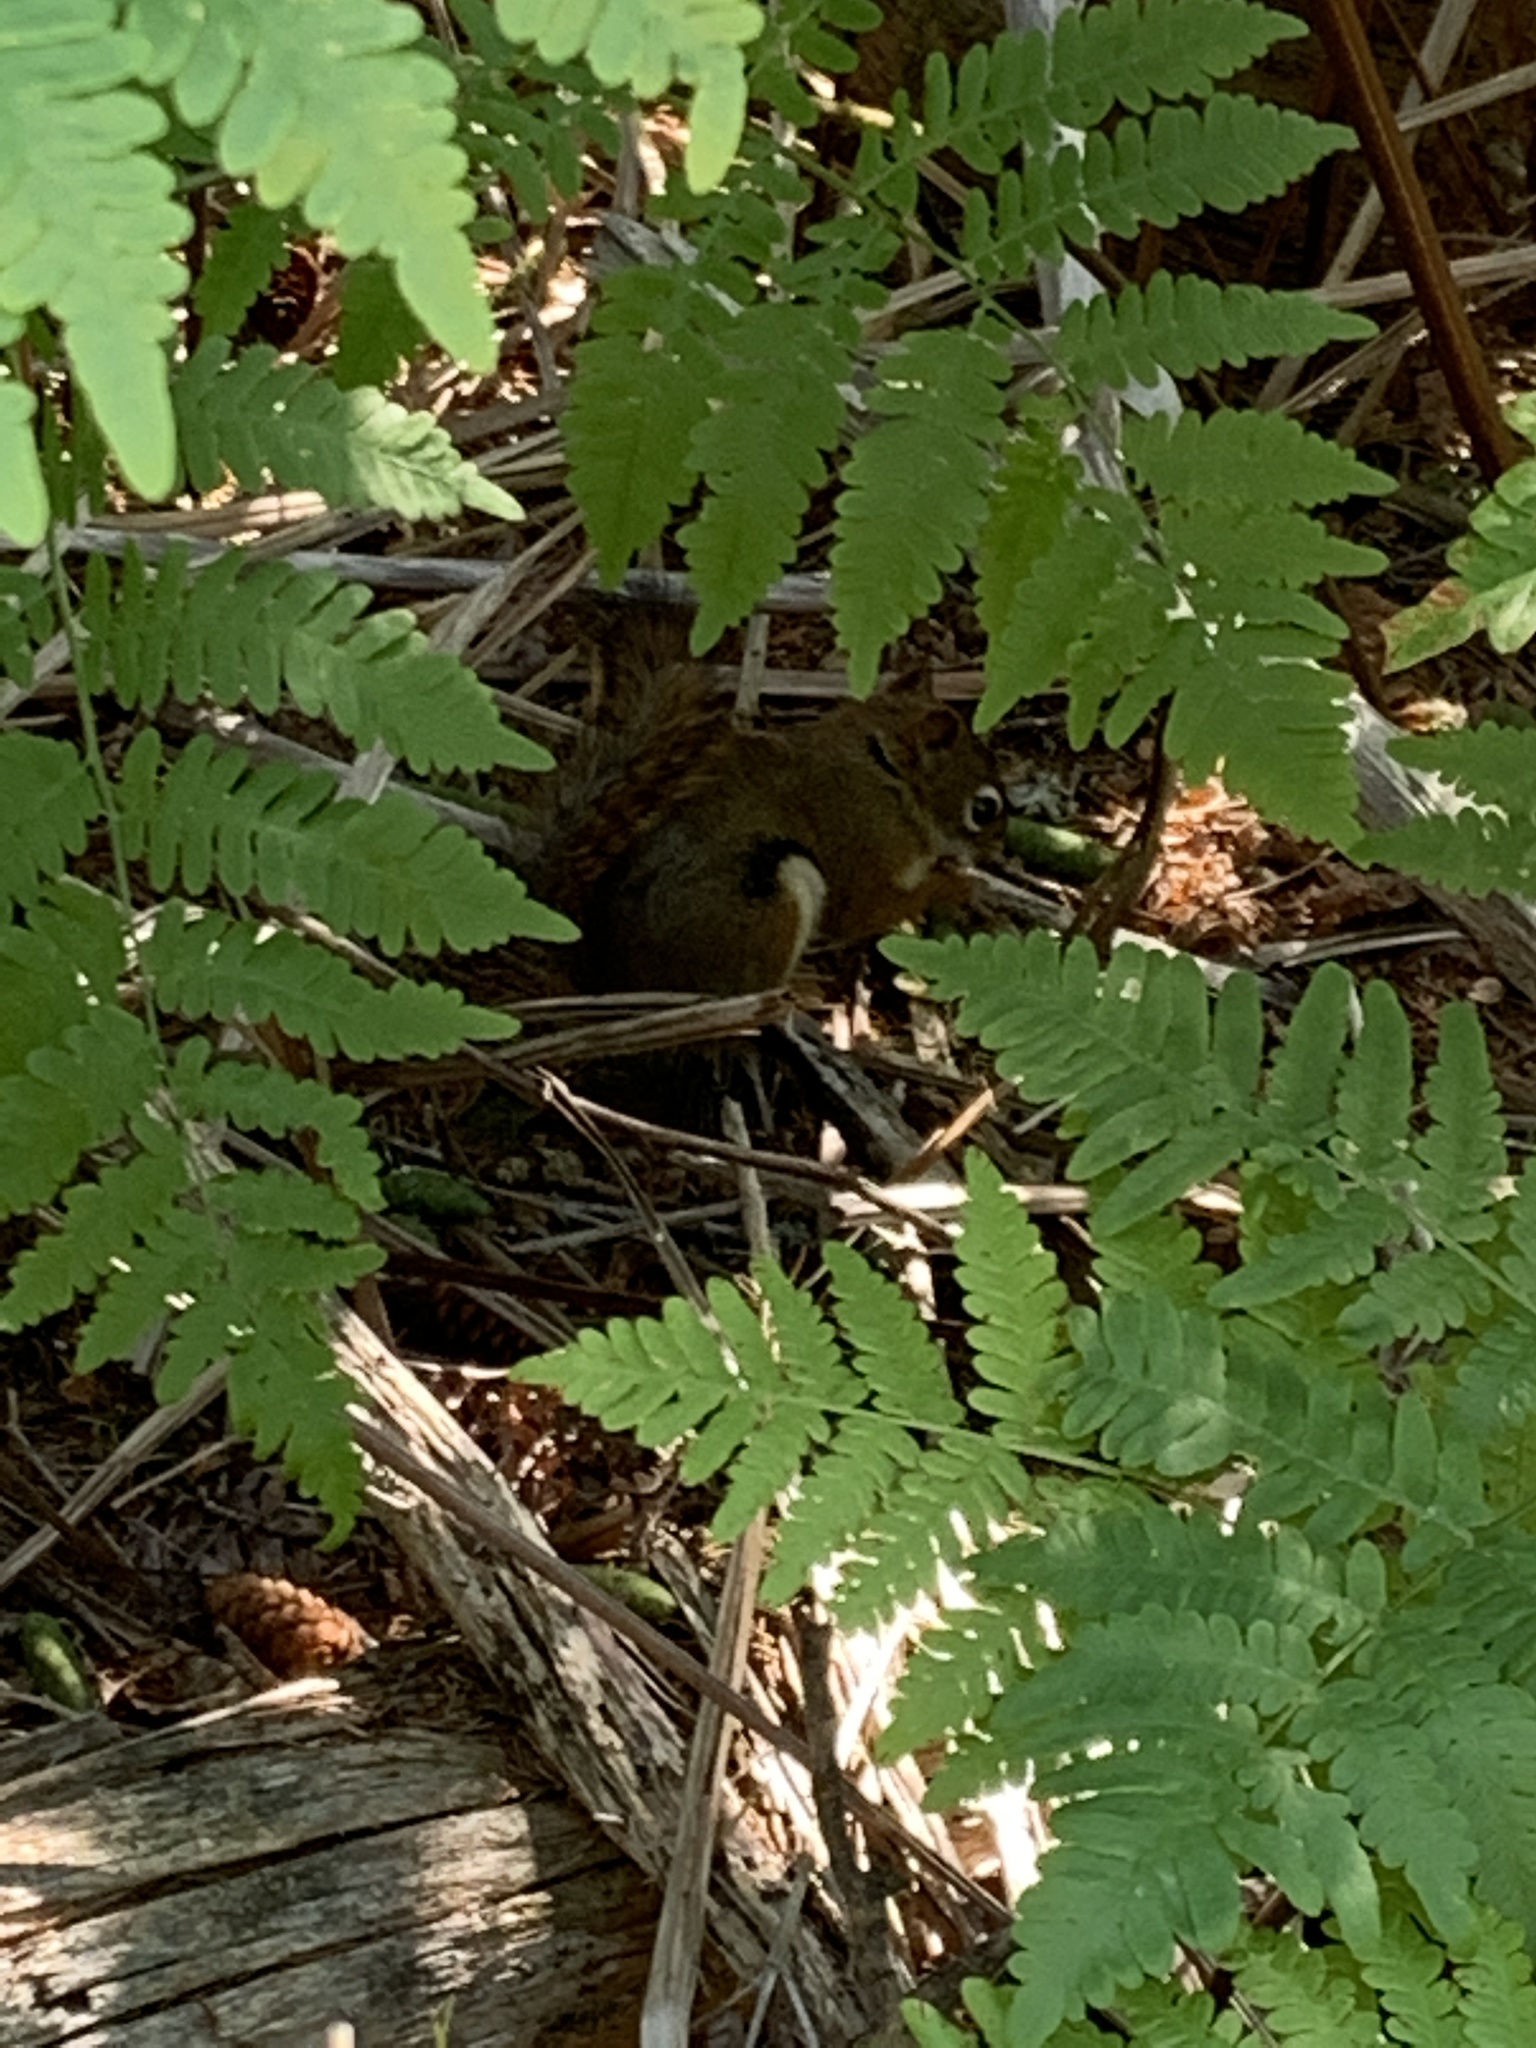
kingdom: Animalia
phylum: Chordata
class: Mammalia
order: Rodentia
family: Sciuridae
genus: Tamiasciurus
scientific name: Tamiasciurus hudsonicus
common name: Red squirrel
